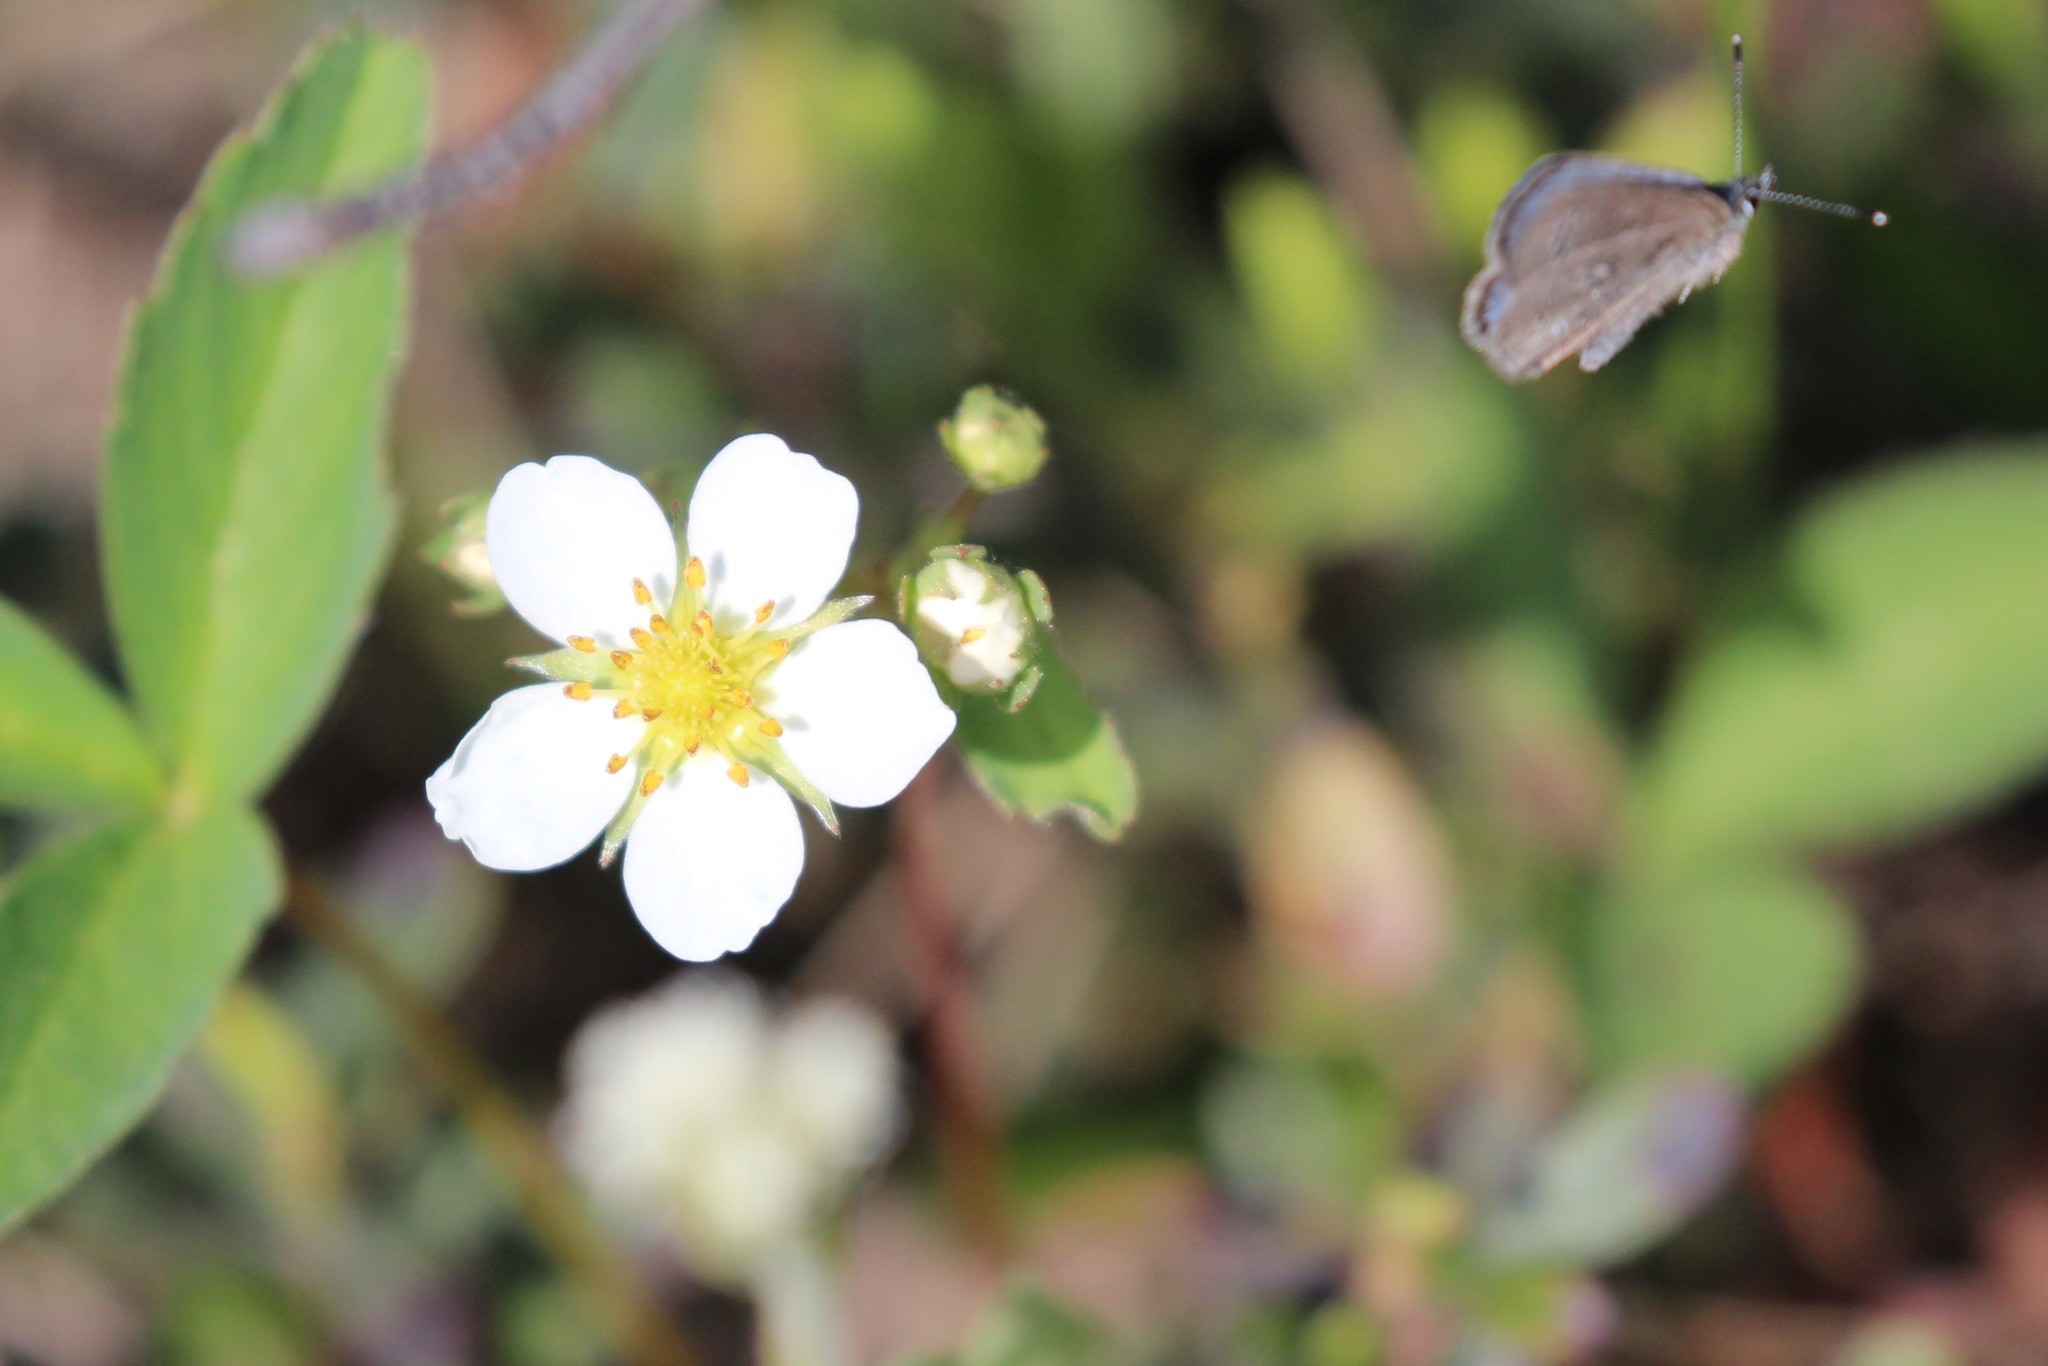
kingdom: Animalia
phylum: Arthropoda
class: Insecta
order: Lepidoptera
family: Lycaenidae
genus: Glaucopsyche
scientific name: Glaucopsyche lygdamus
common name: Silvery blue
